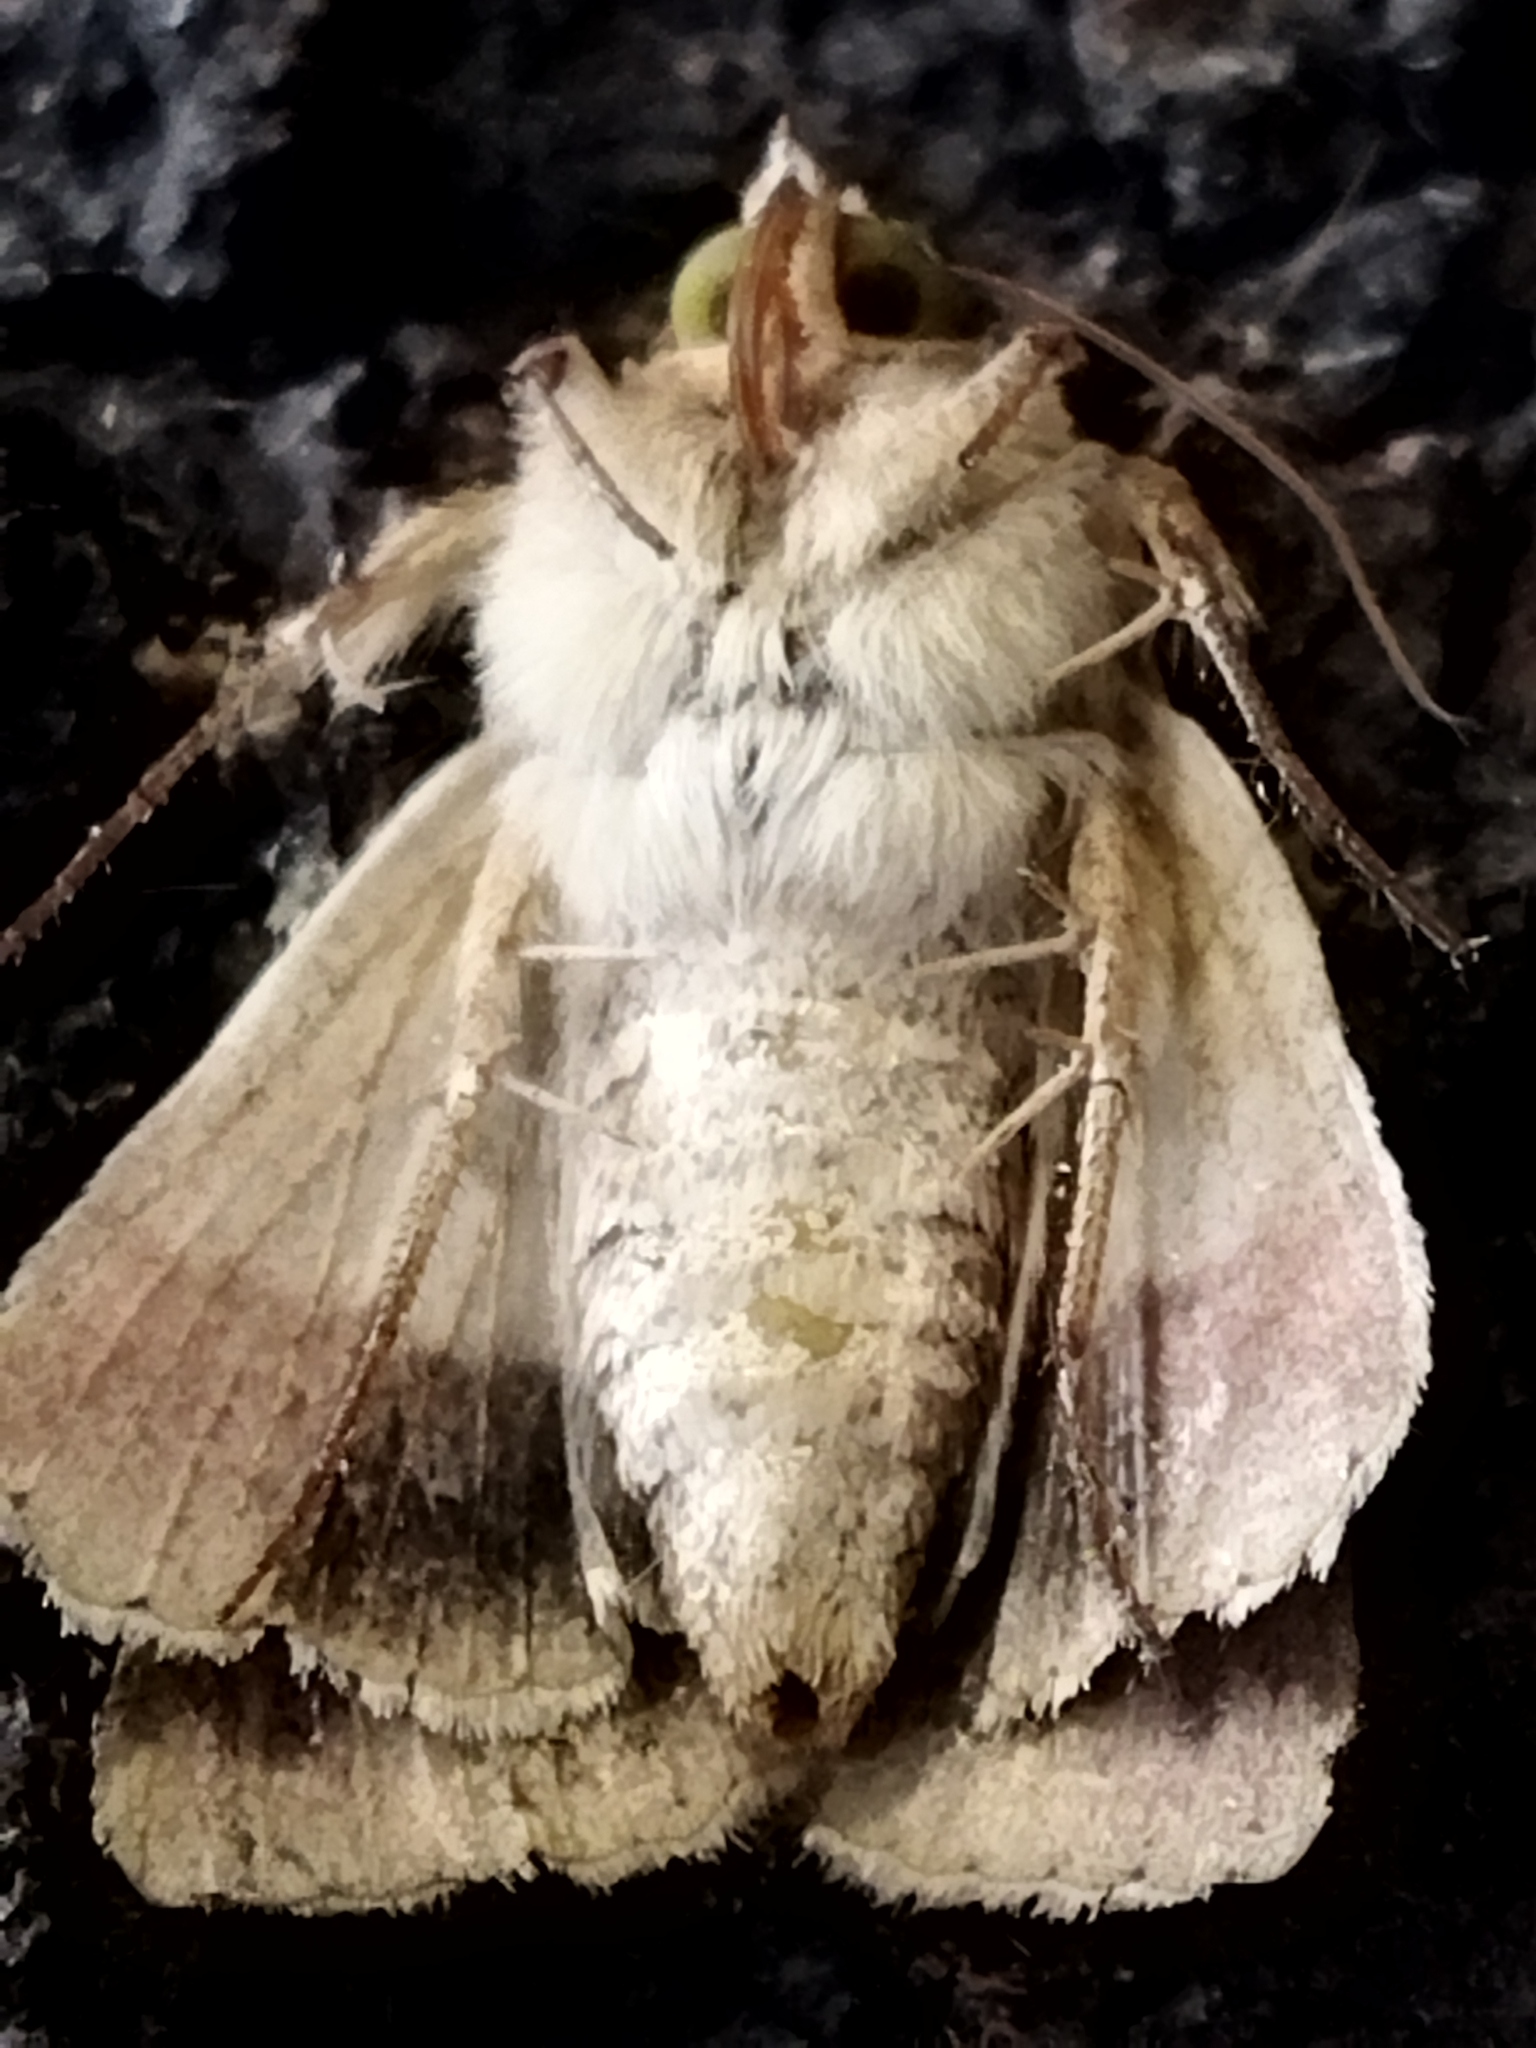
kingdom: Animalia
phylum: Arthropoda
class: Insecta
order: Lepidoptera
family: Noctuidae
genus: Helicoverpa
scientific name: Helicoverpa armigera
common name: Cotton bollworm
